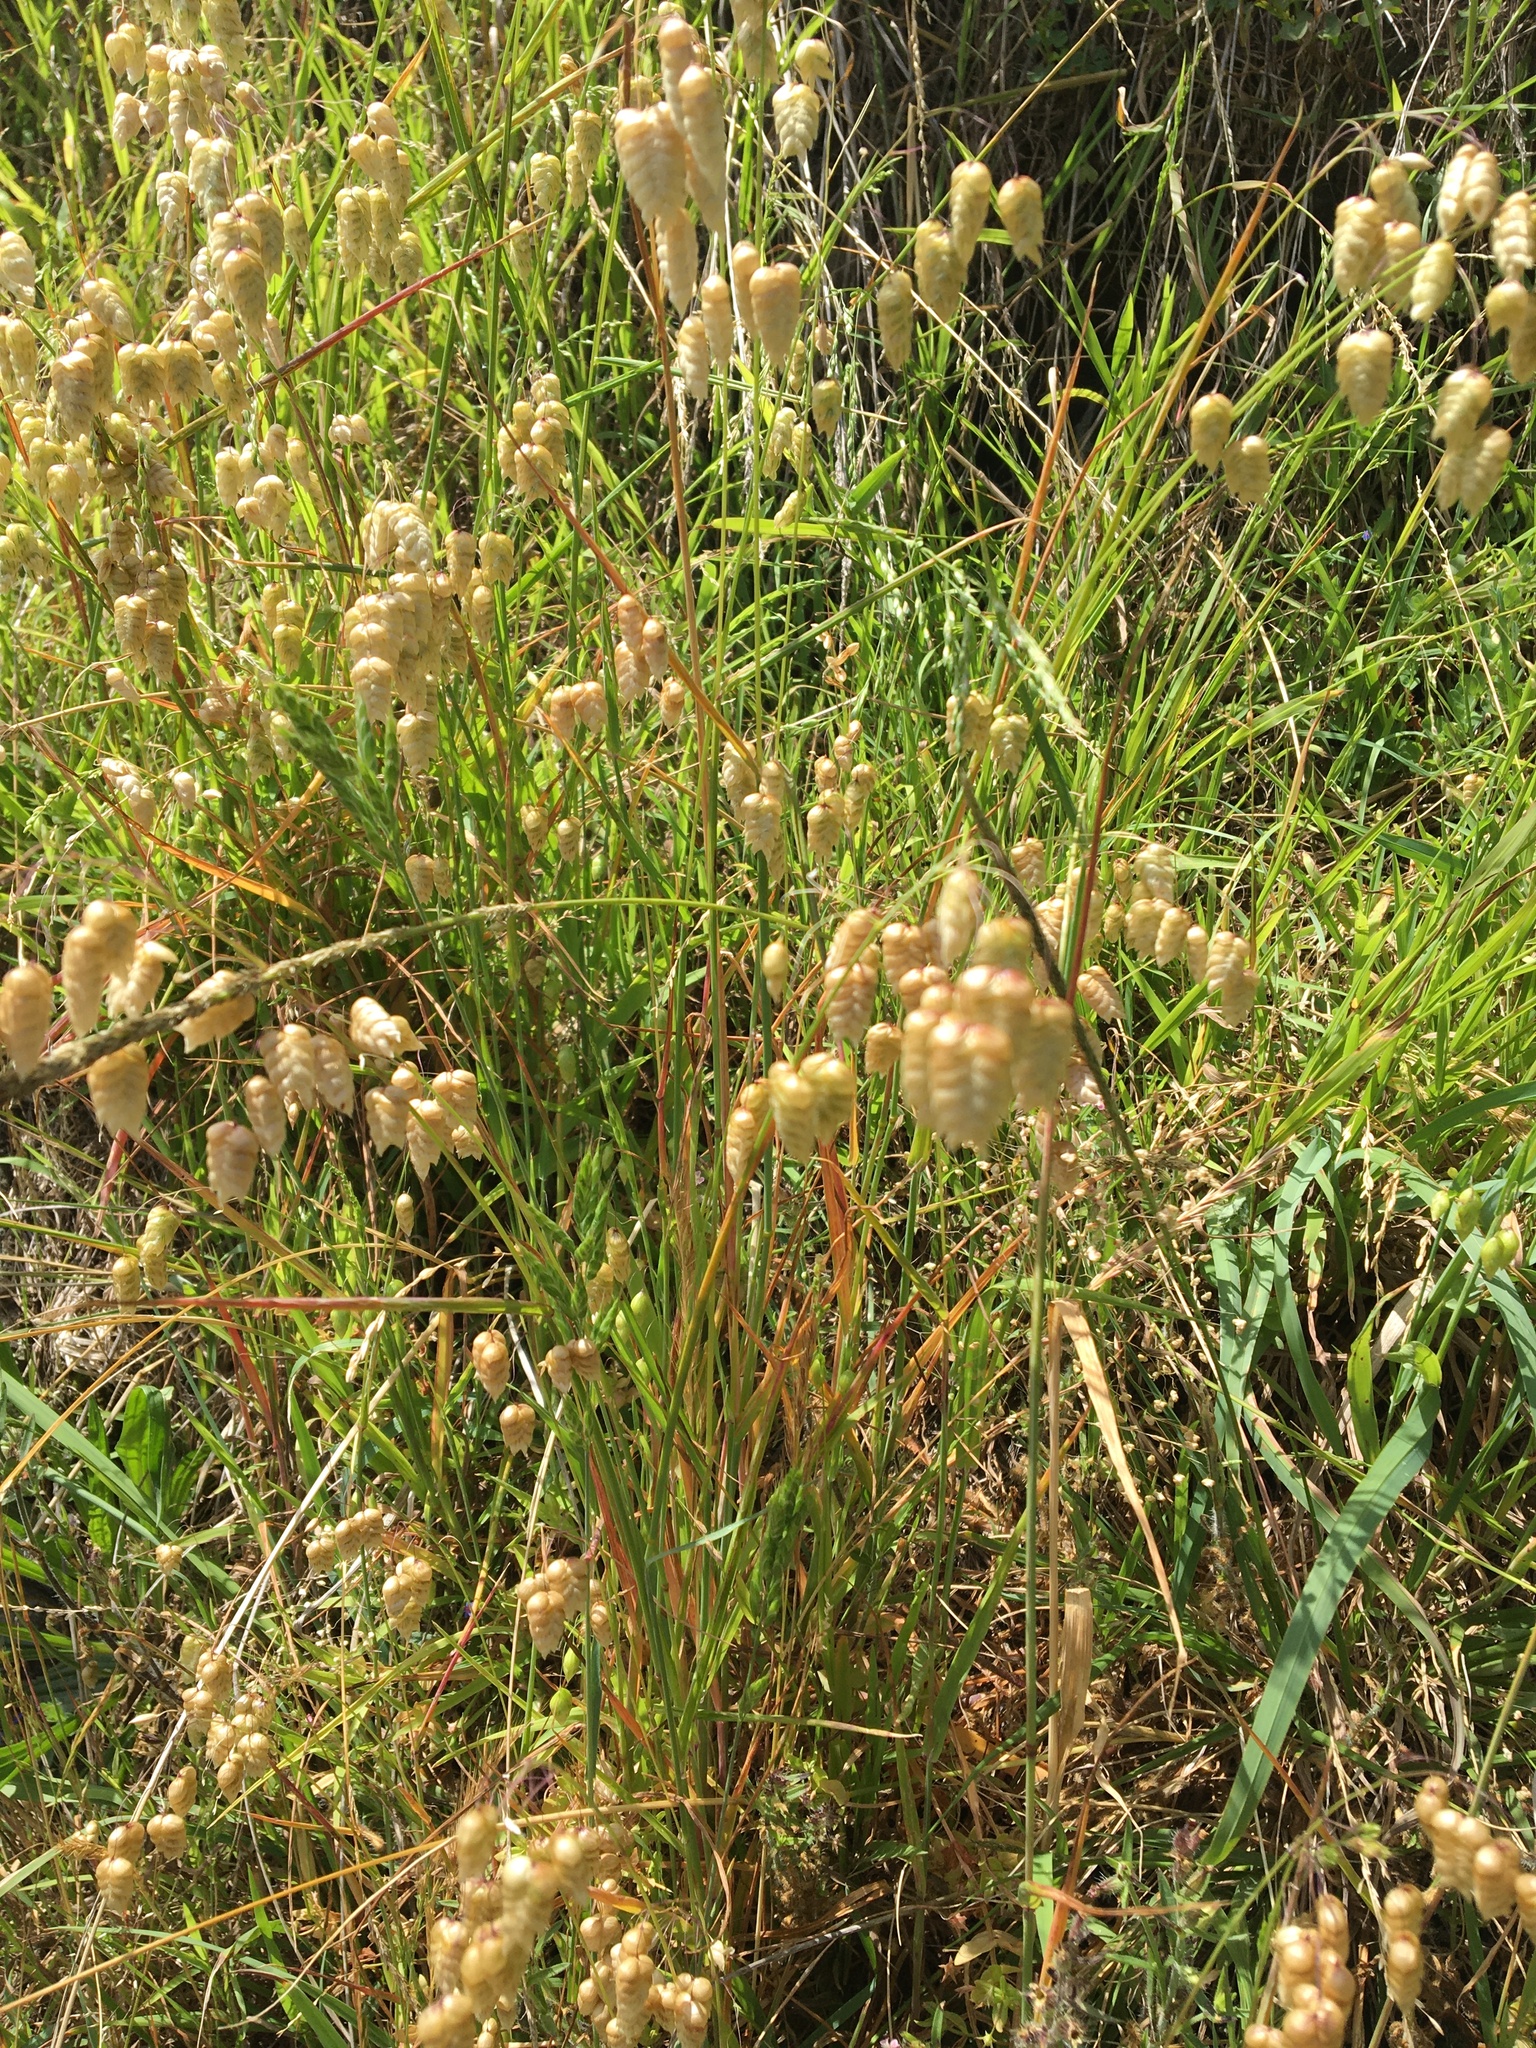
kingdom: Plantae
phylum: Tracheophyta
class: Liliopsida
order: Poales
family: Poaceae
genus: Briza
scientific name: Briza maxima
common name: Big quakinggrass
